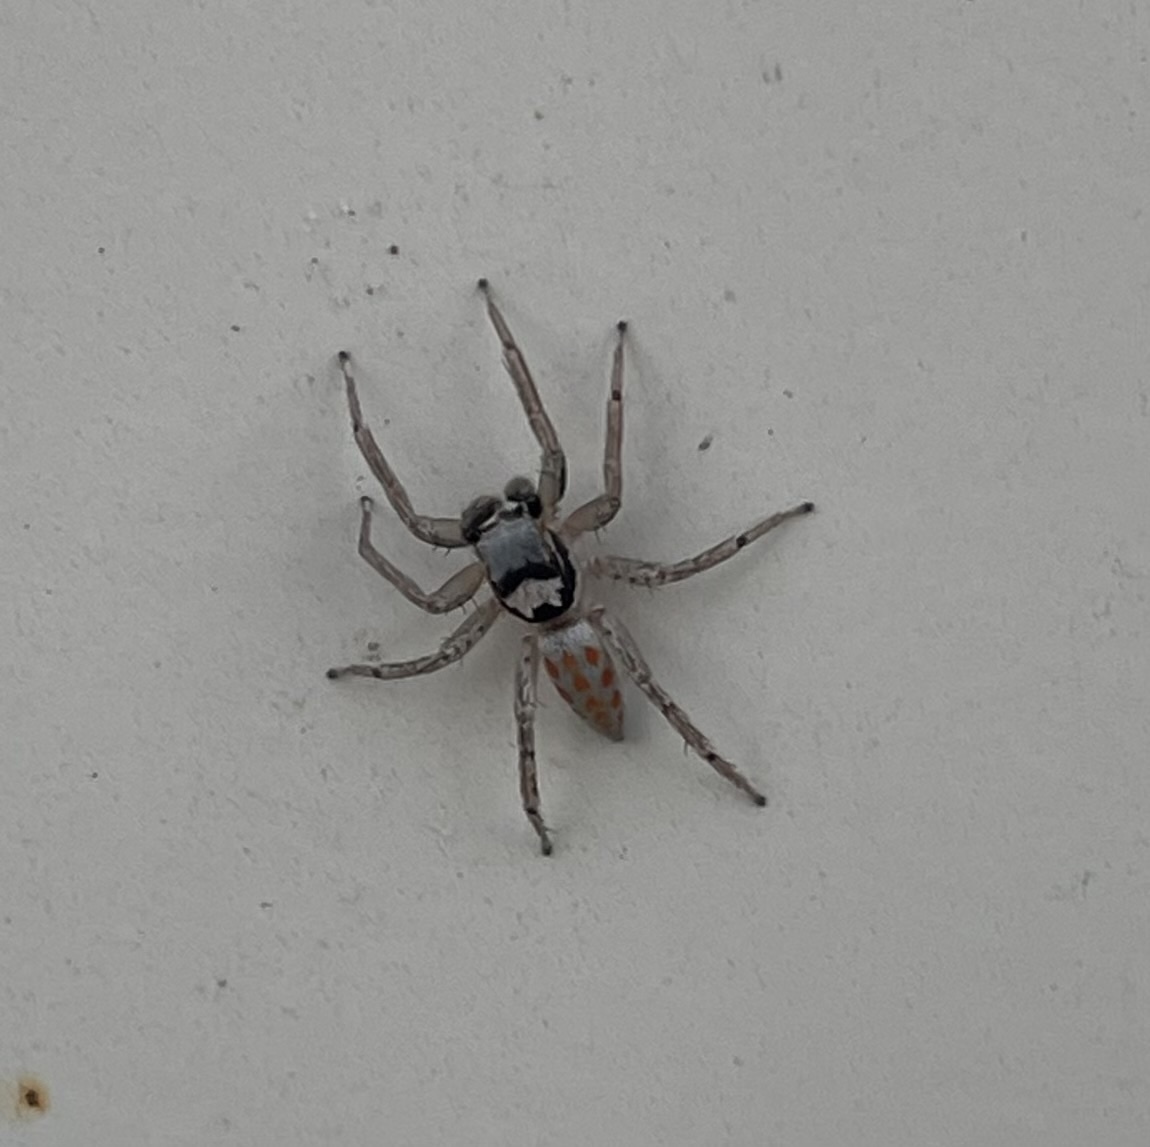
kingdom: Animalia
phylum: Arthropoda
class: Arachnida
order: Araneae
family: Salticidae
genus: Paramaevia
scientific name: Paramaevia poultoni
